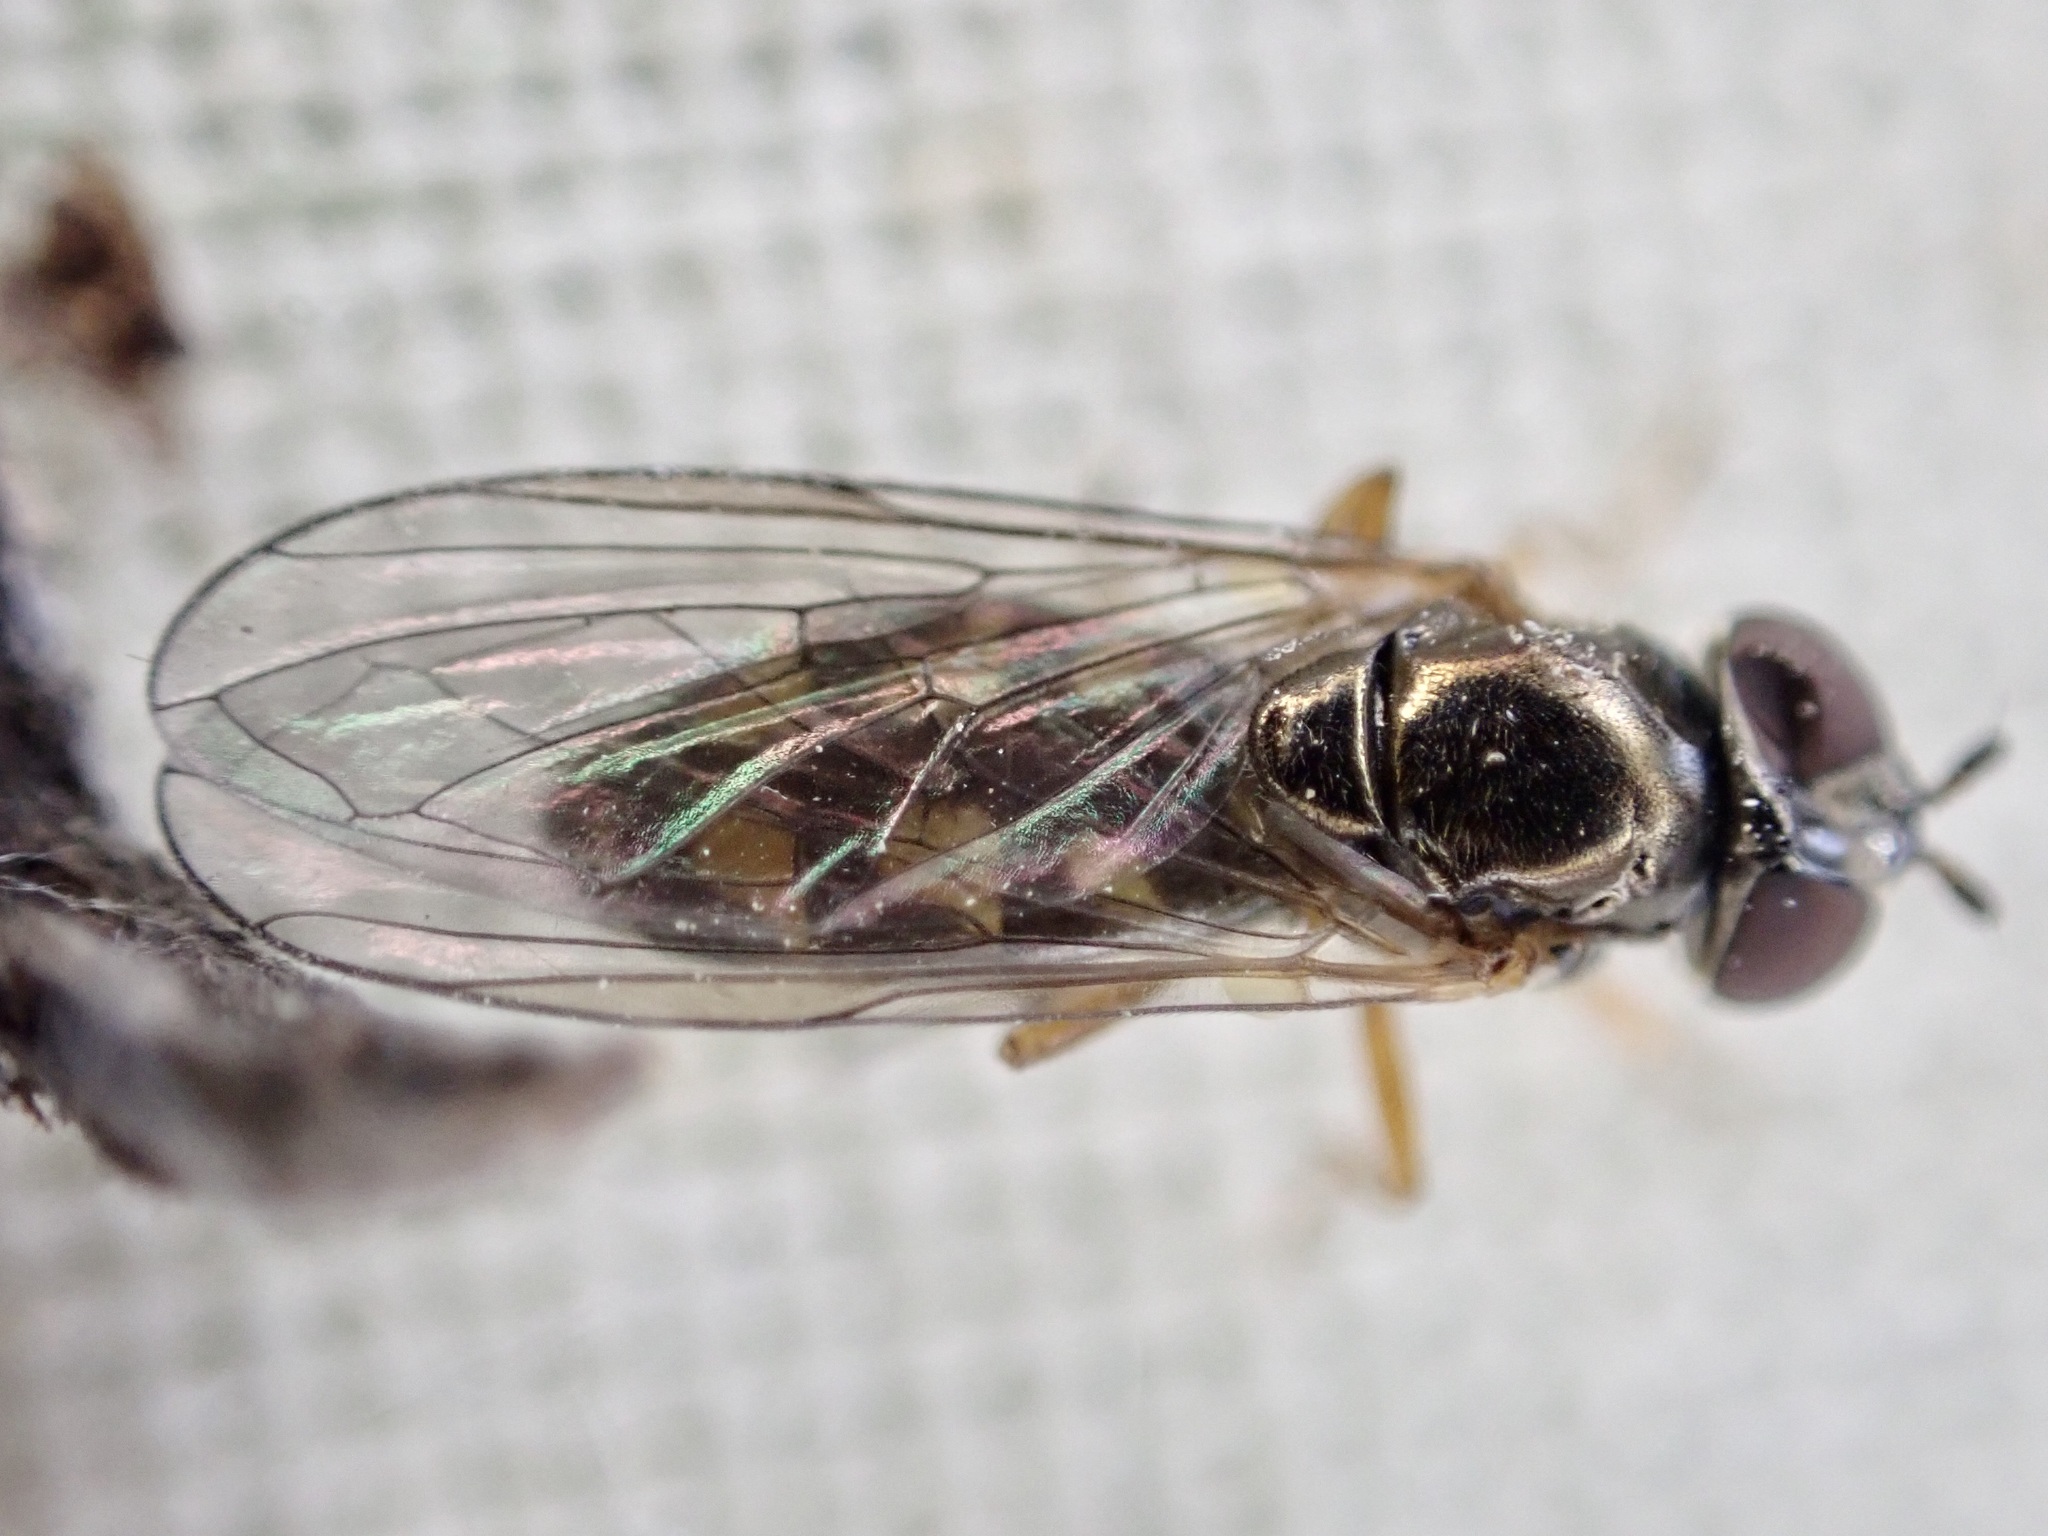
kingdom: Animalia
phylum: Arthropoda
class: Insecta
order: Diptera
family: Syrphidae
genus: Melanostoma
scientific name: Melanostoma fasciatum
